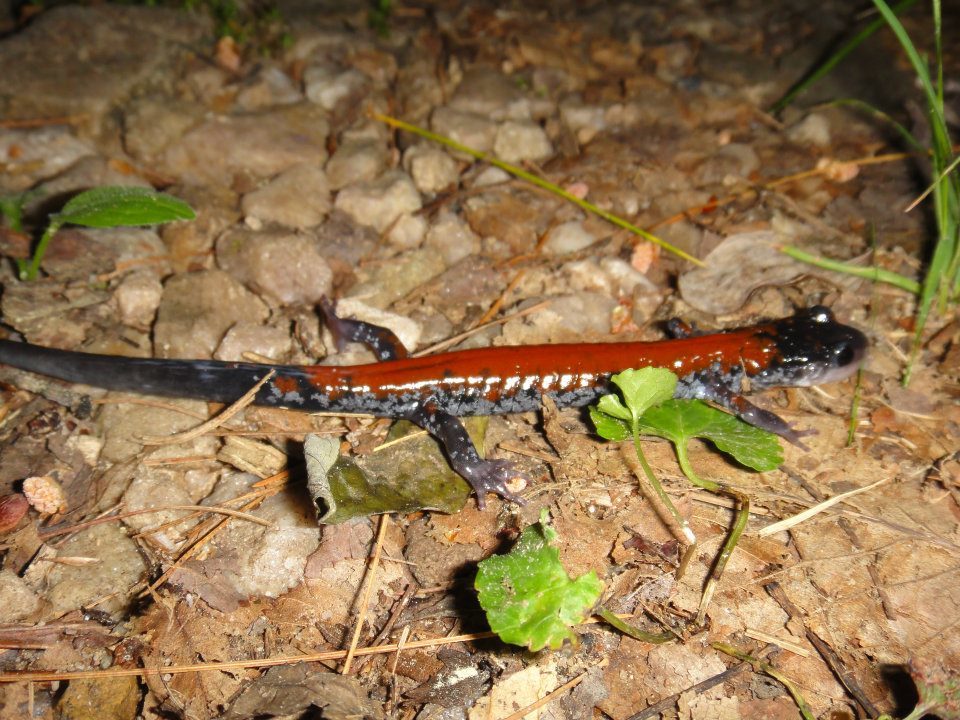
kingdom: Animalia
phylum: Chordata
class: Amphibia
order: Caudata
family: Plethodontidae
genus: Plethodon
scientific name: Plethodon yonahlossee
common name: Yonahlossee salamander
